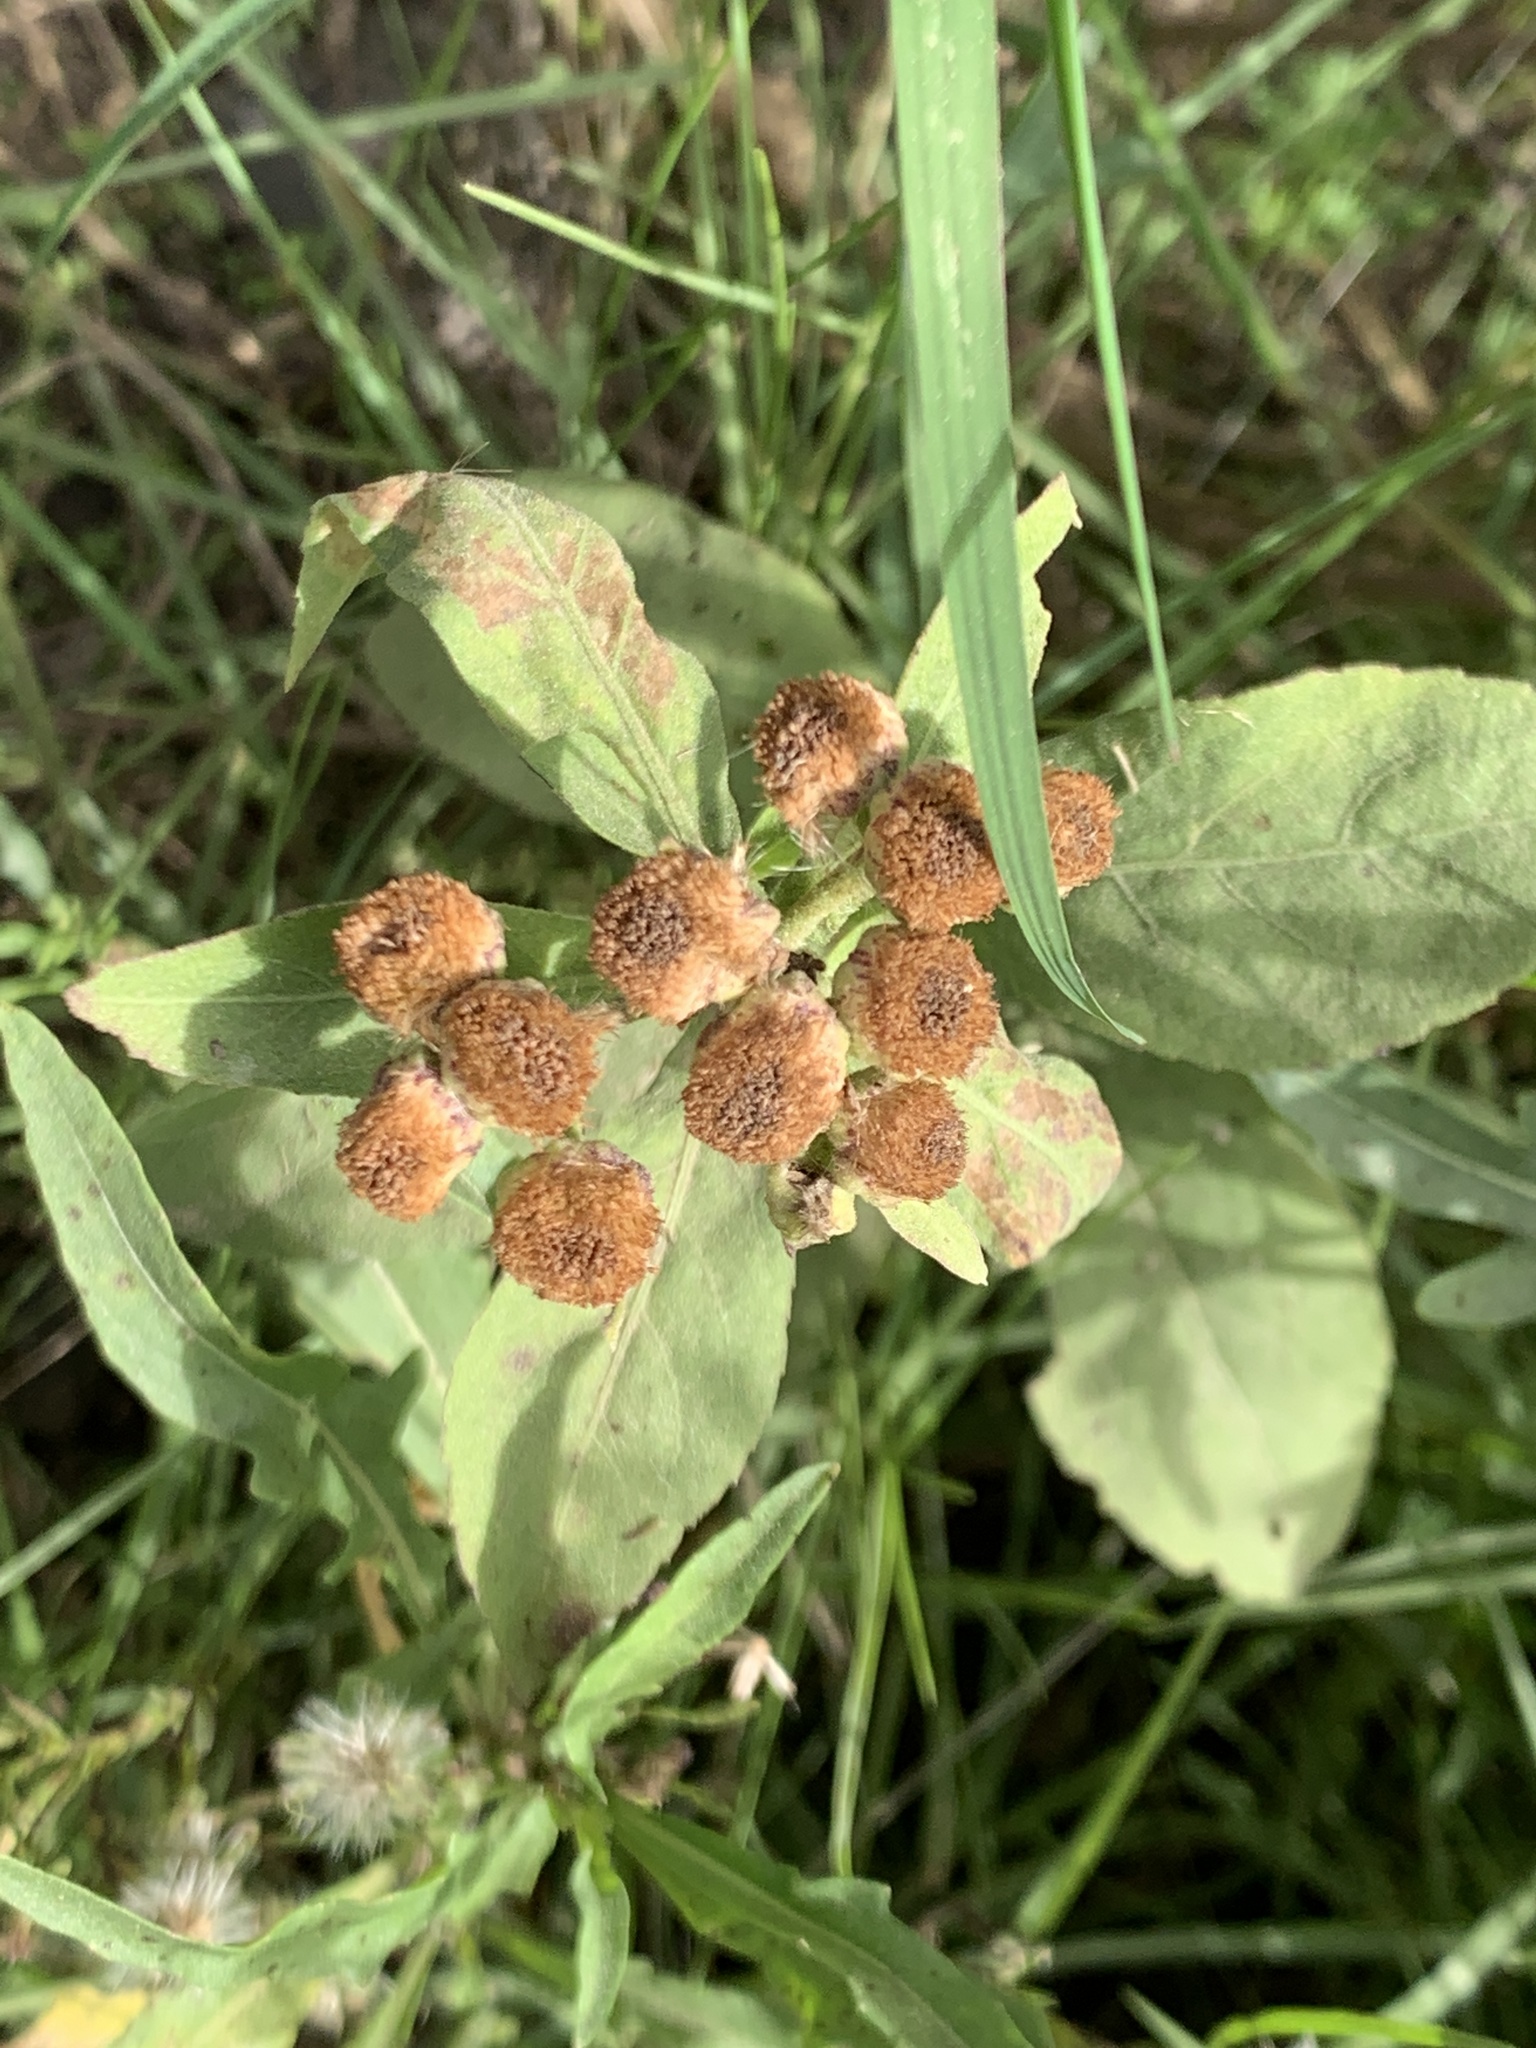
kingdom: Plantae
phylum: Tracheophyta
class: Magnoliopsida
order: Asterales
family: Asteraceae
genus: Pluchea
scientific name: Pluchea sagittalis
